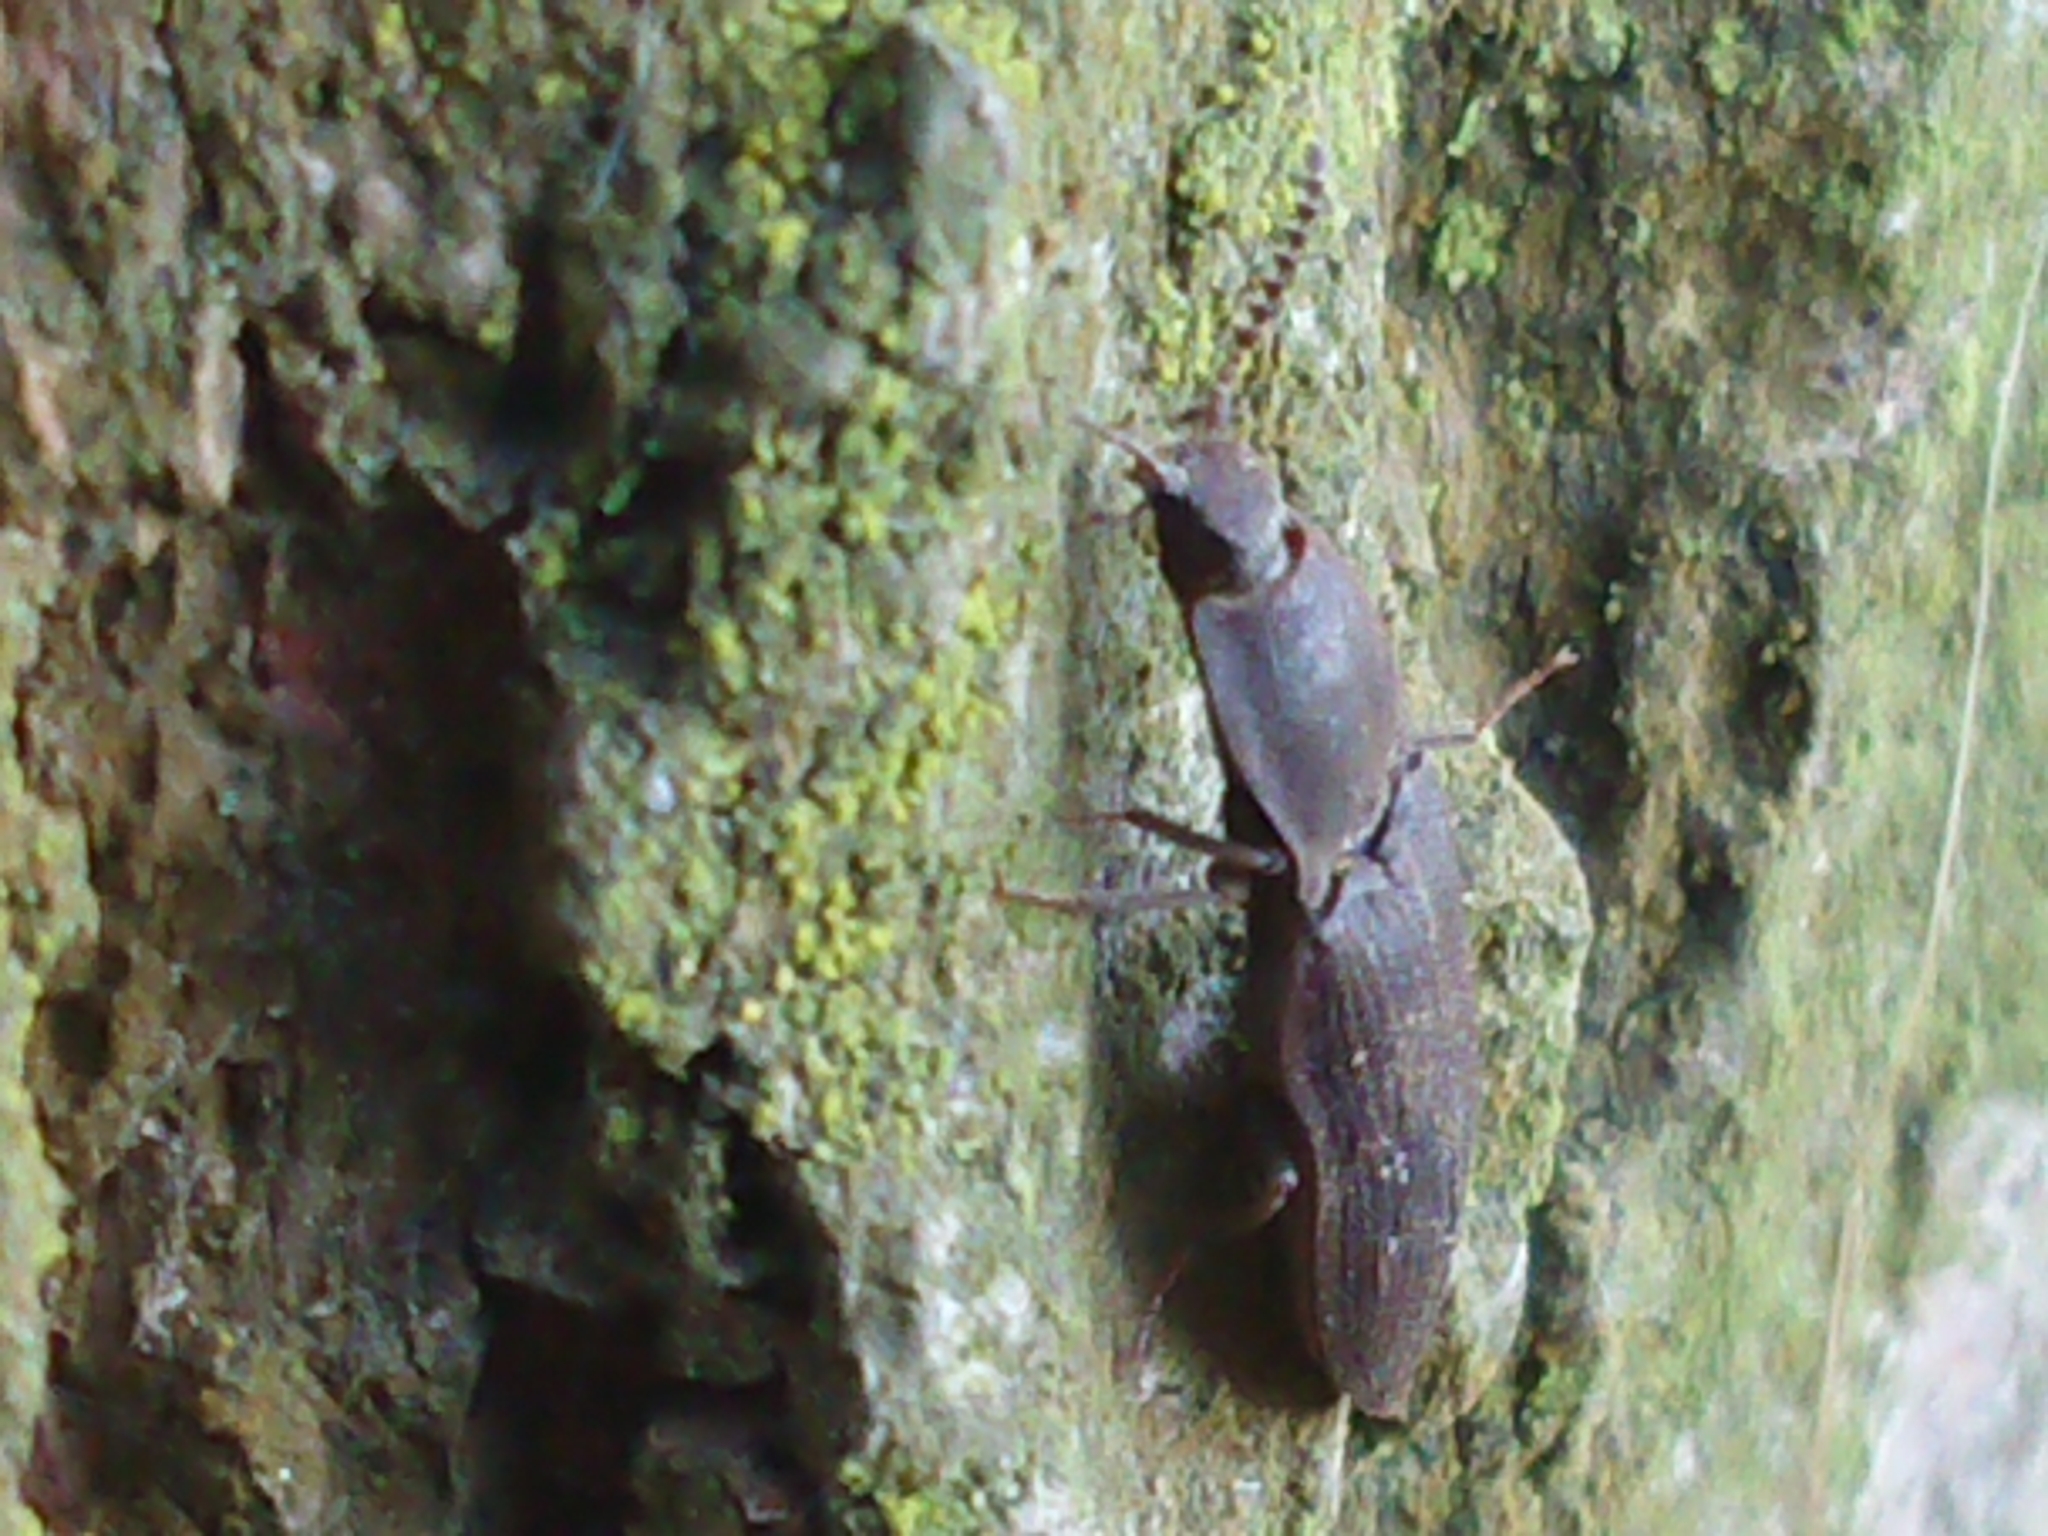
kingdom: Animalia
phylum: Arthropoda
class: Insecta
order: Coleoptera
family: Elateridae
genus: Agrypnus
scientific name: Agrypnus
